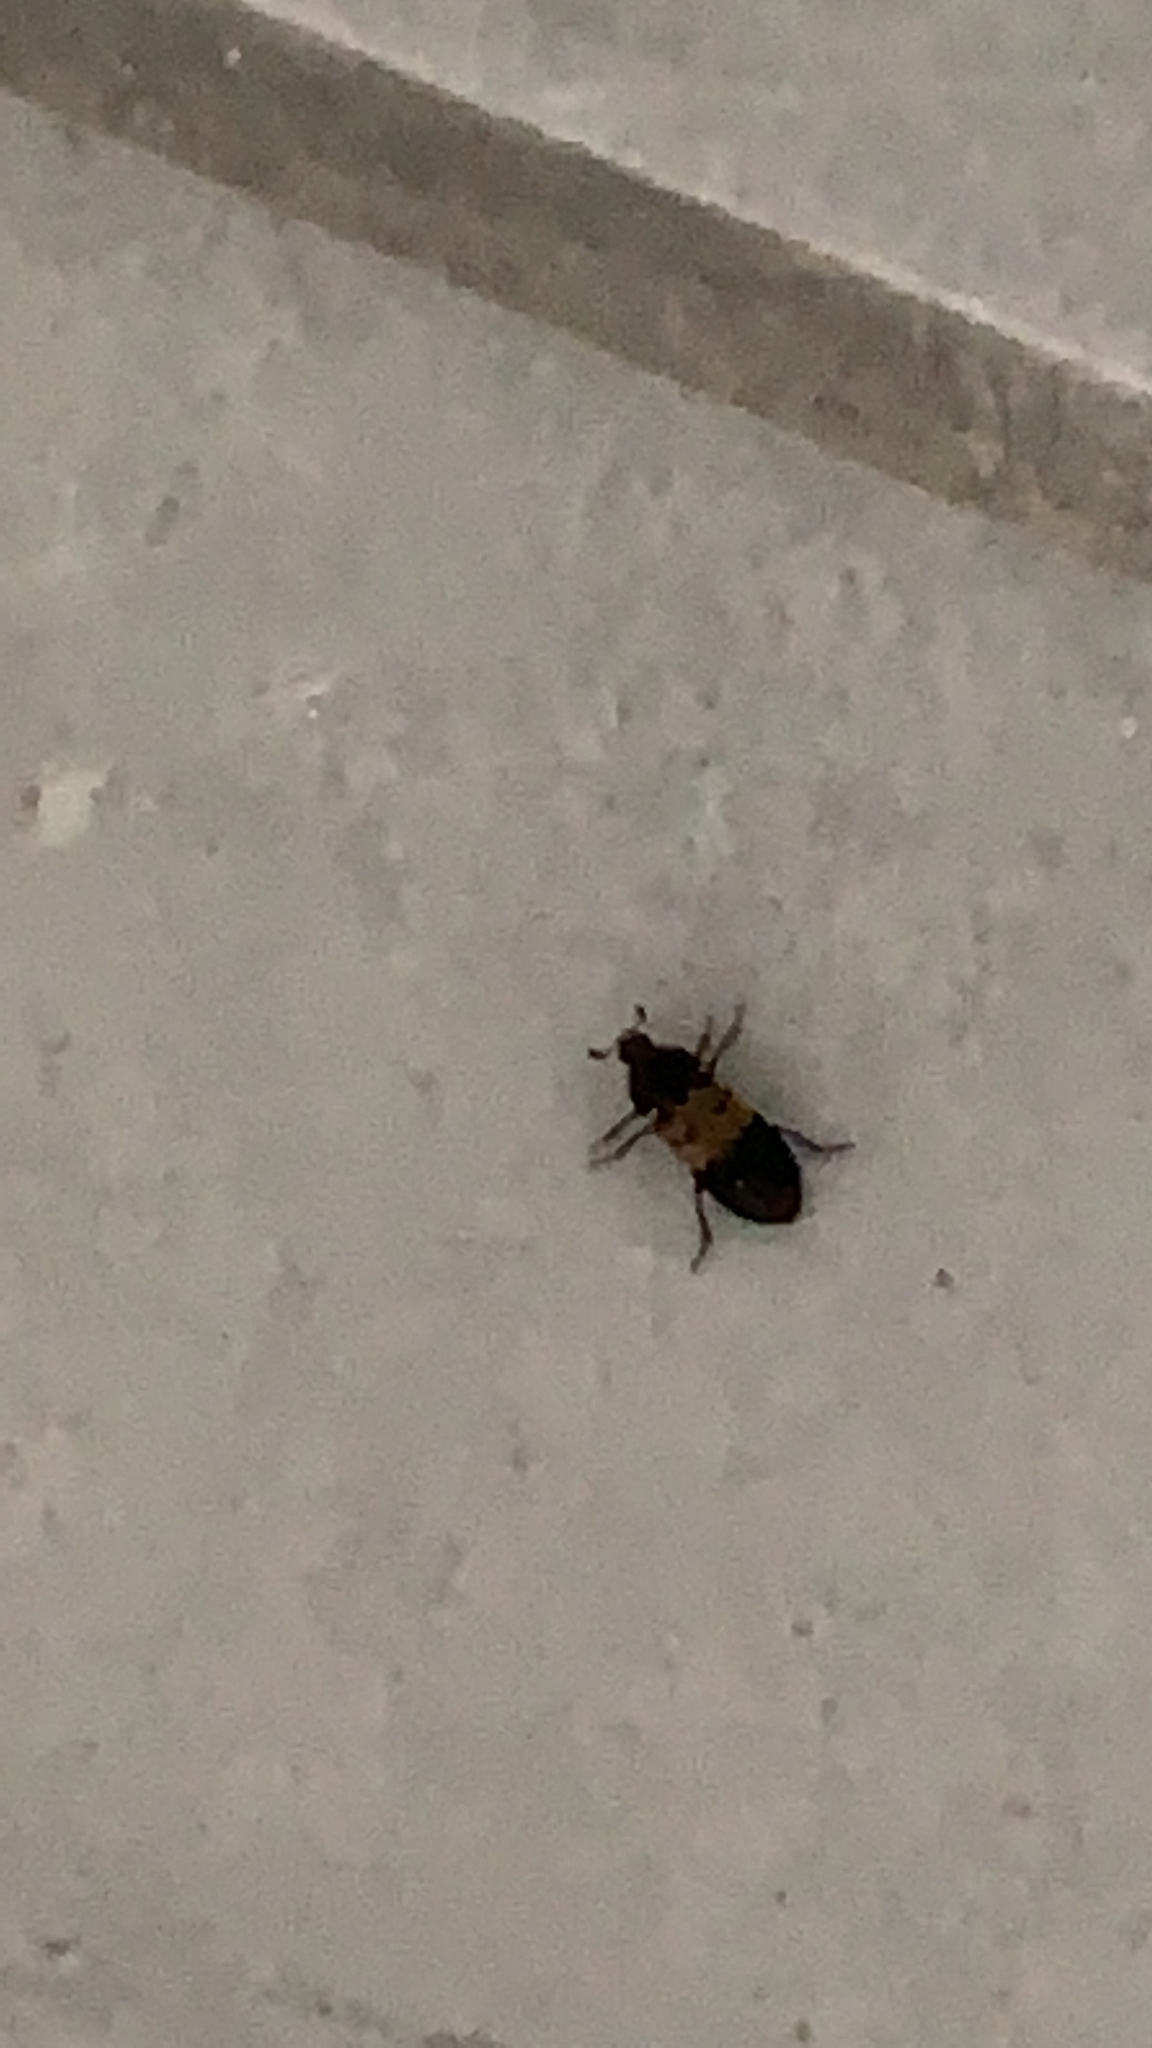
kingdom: Animalia
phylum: Arthropoda
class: Insecta
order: Coleoptera
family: Dermestidae
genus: Dermestes
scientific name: Dermestes lardarius
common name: Larder beetle
